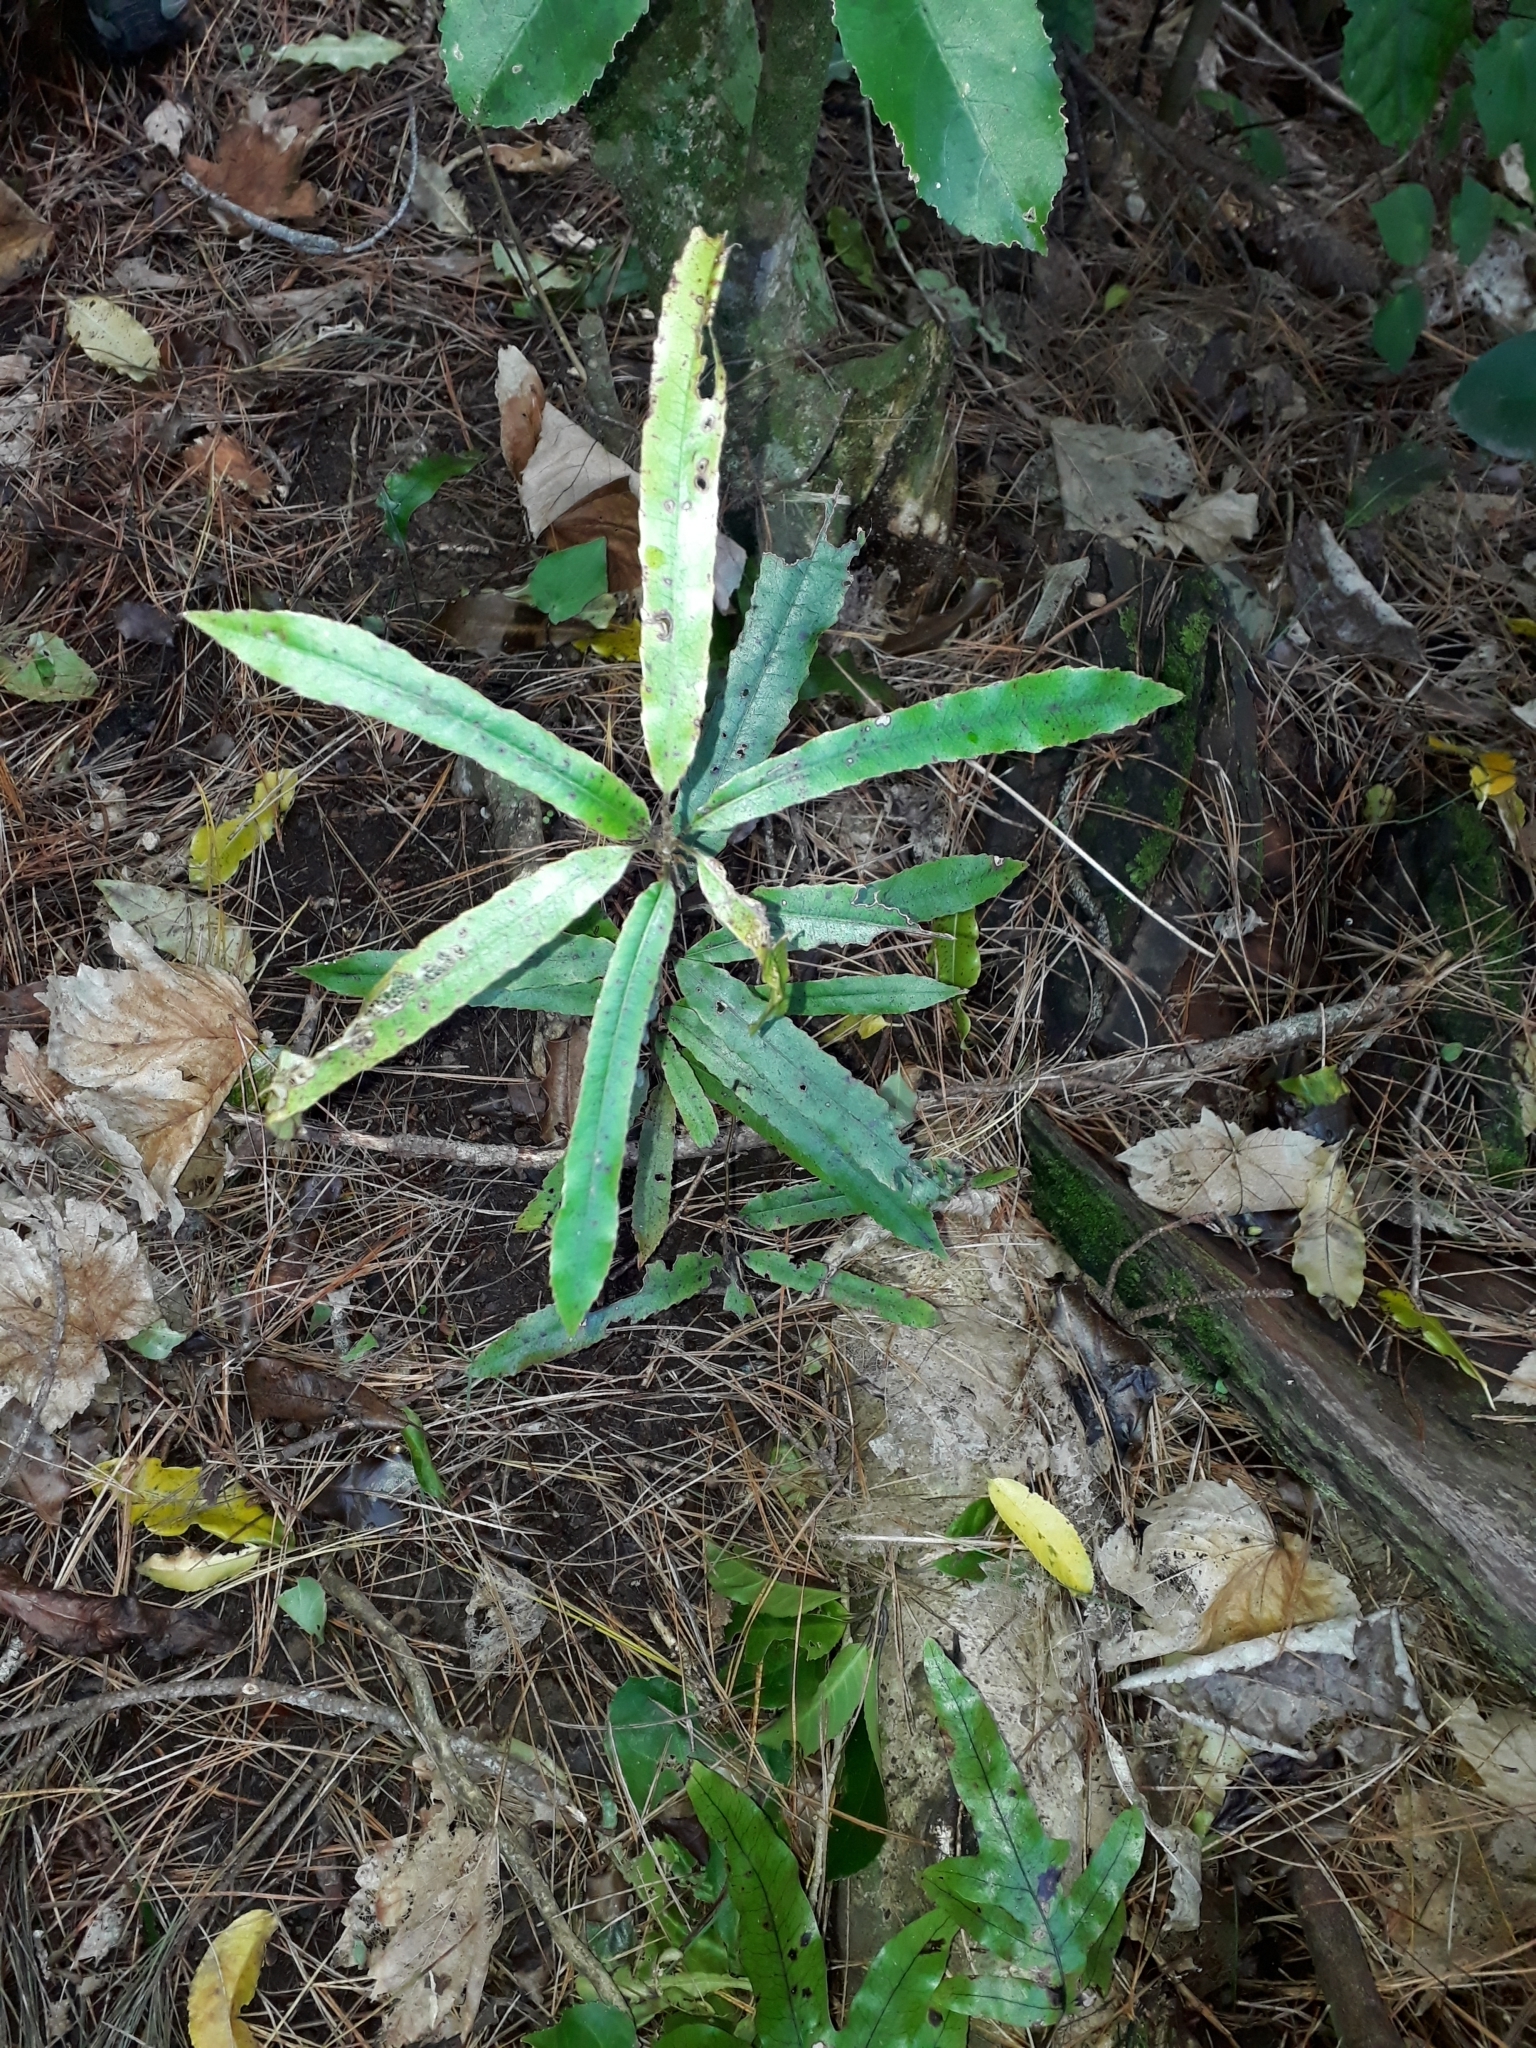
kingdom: Plantae
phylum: Tracheophyta
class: Magnoliopsida
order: Oxalidales
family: Elaeocarpaceae
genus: Elaeocarpus
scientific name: Elaeocarpus dentatus
